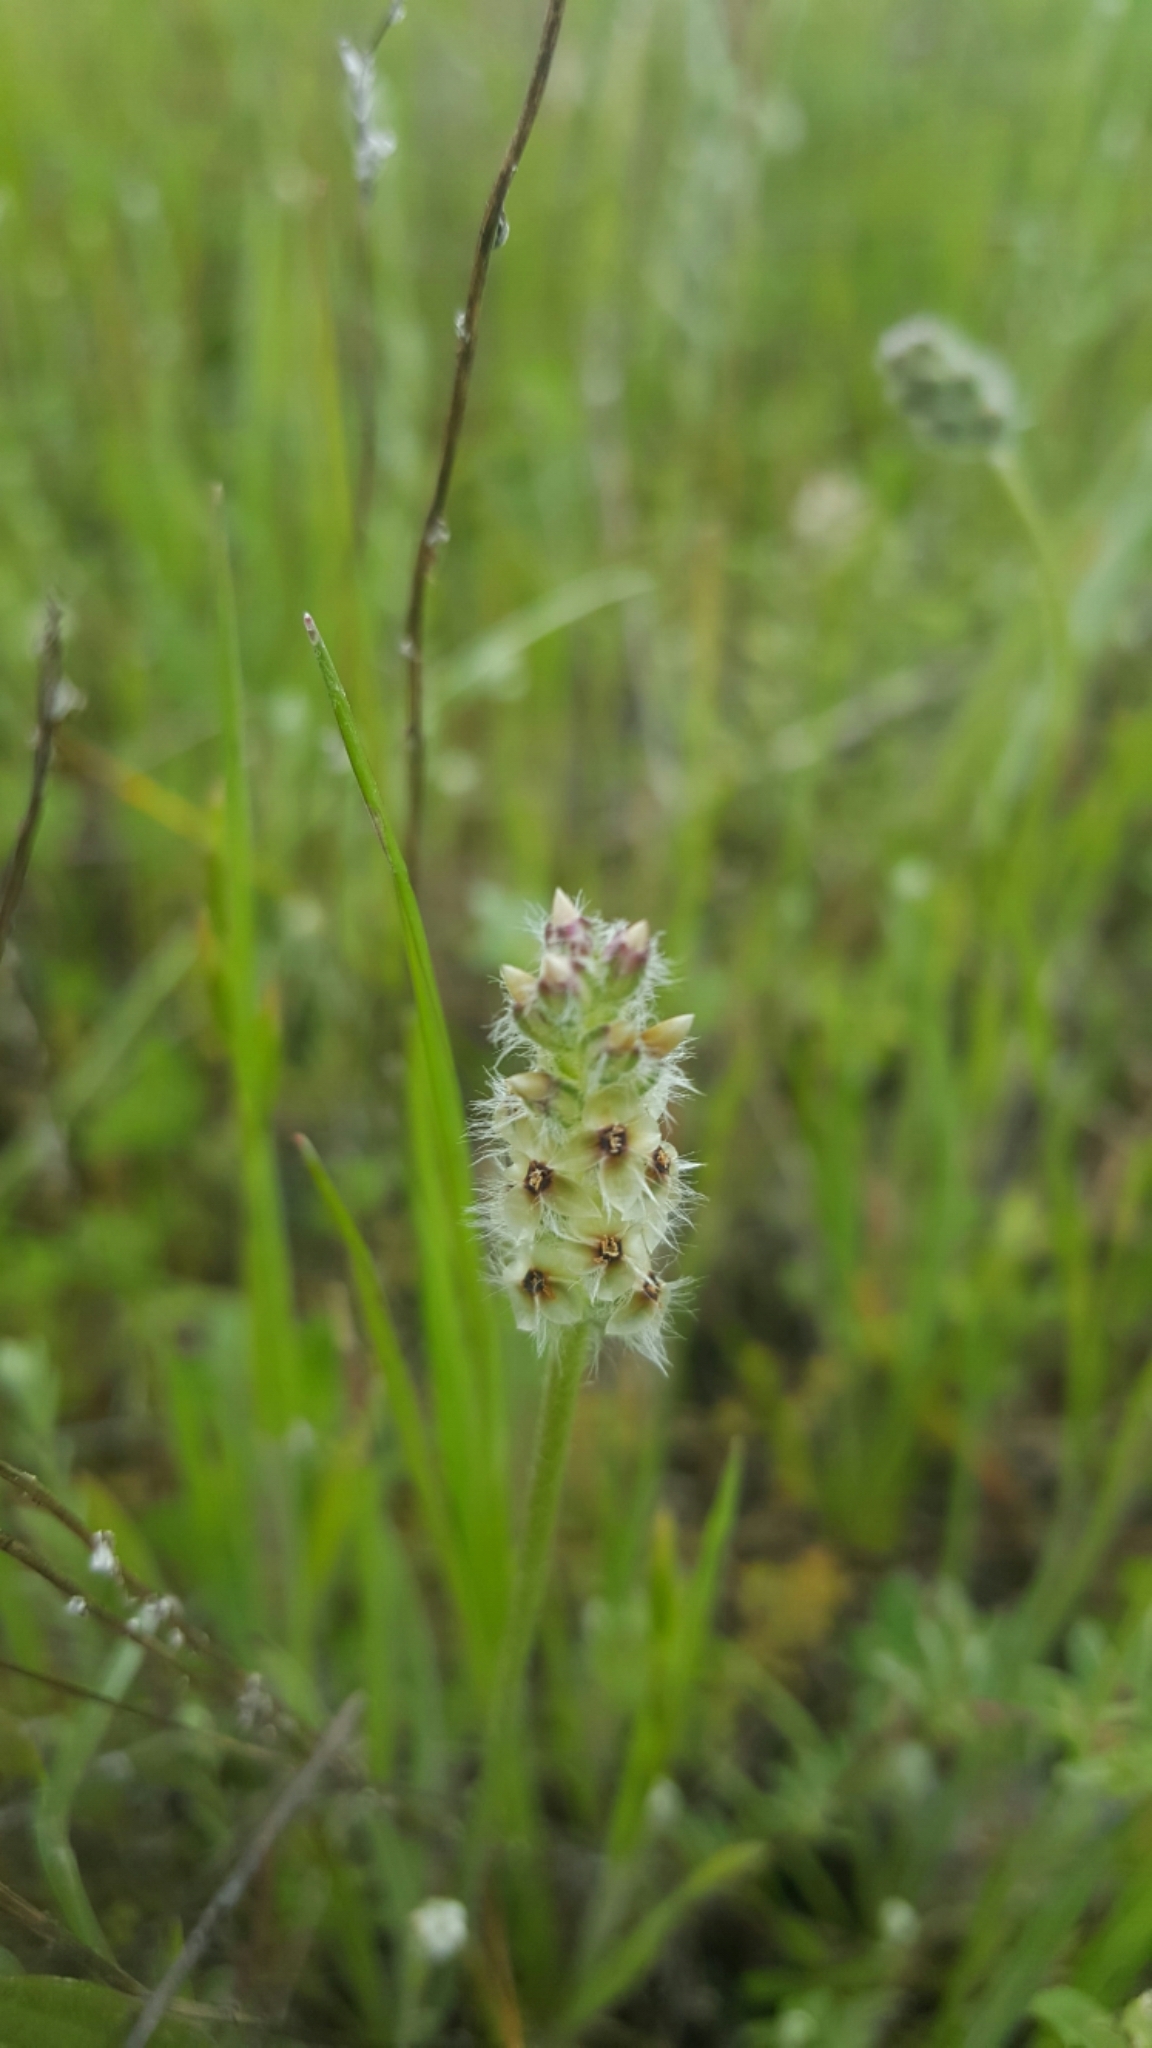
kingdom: Plantae
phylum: Tracheophyta
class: Magnoliopsida
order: Lamiales
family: Plantaginaceae
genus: Plantago
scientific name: Plantago erecta
